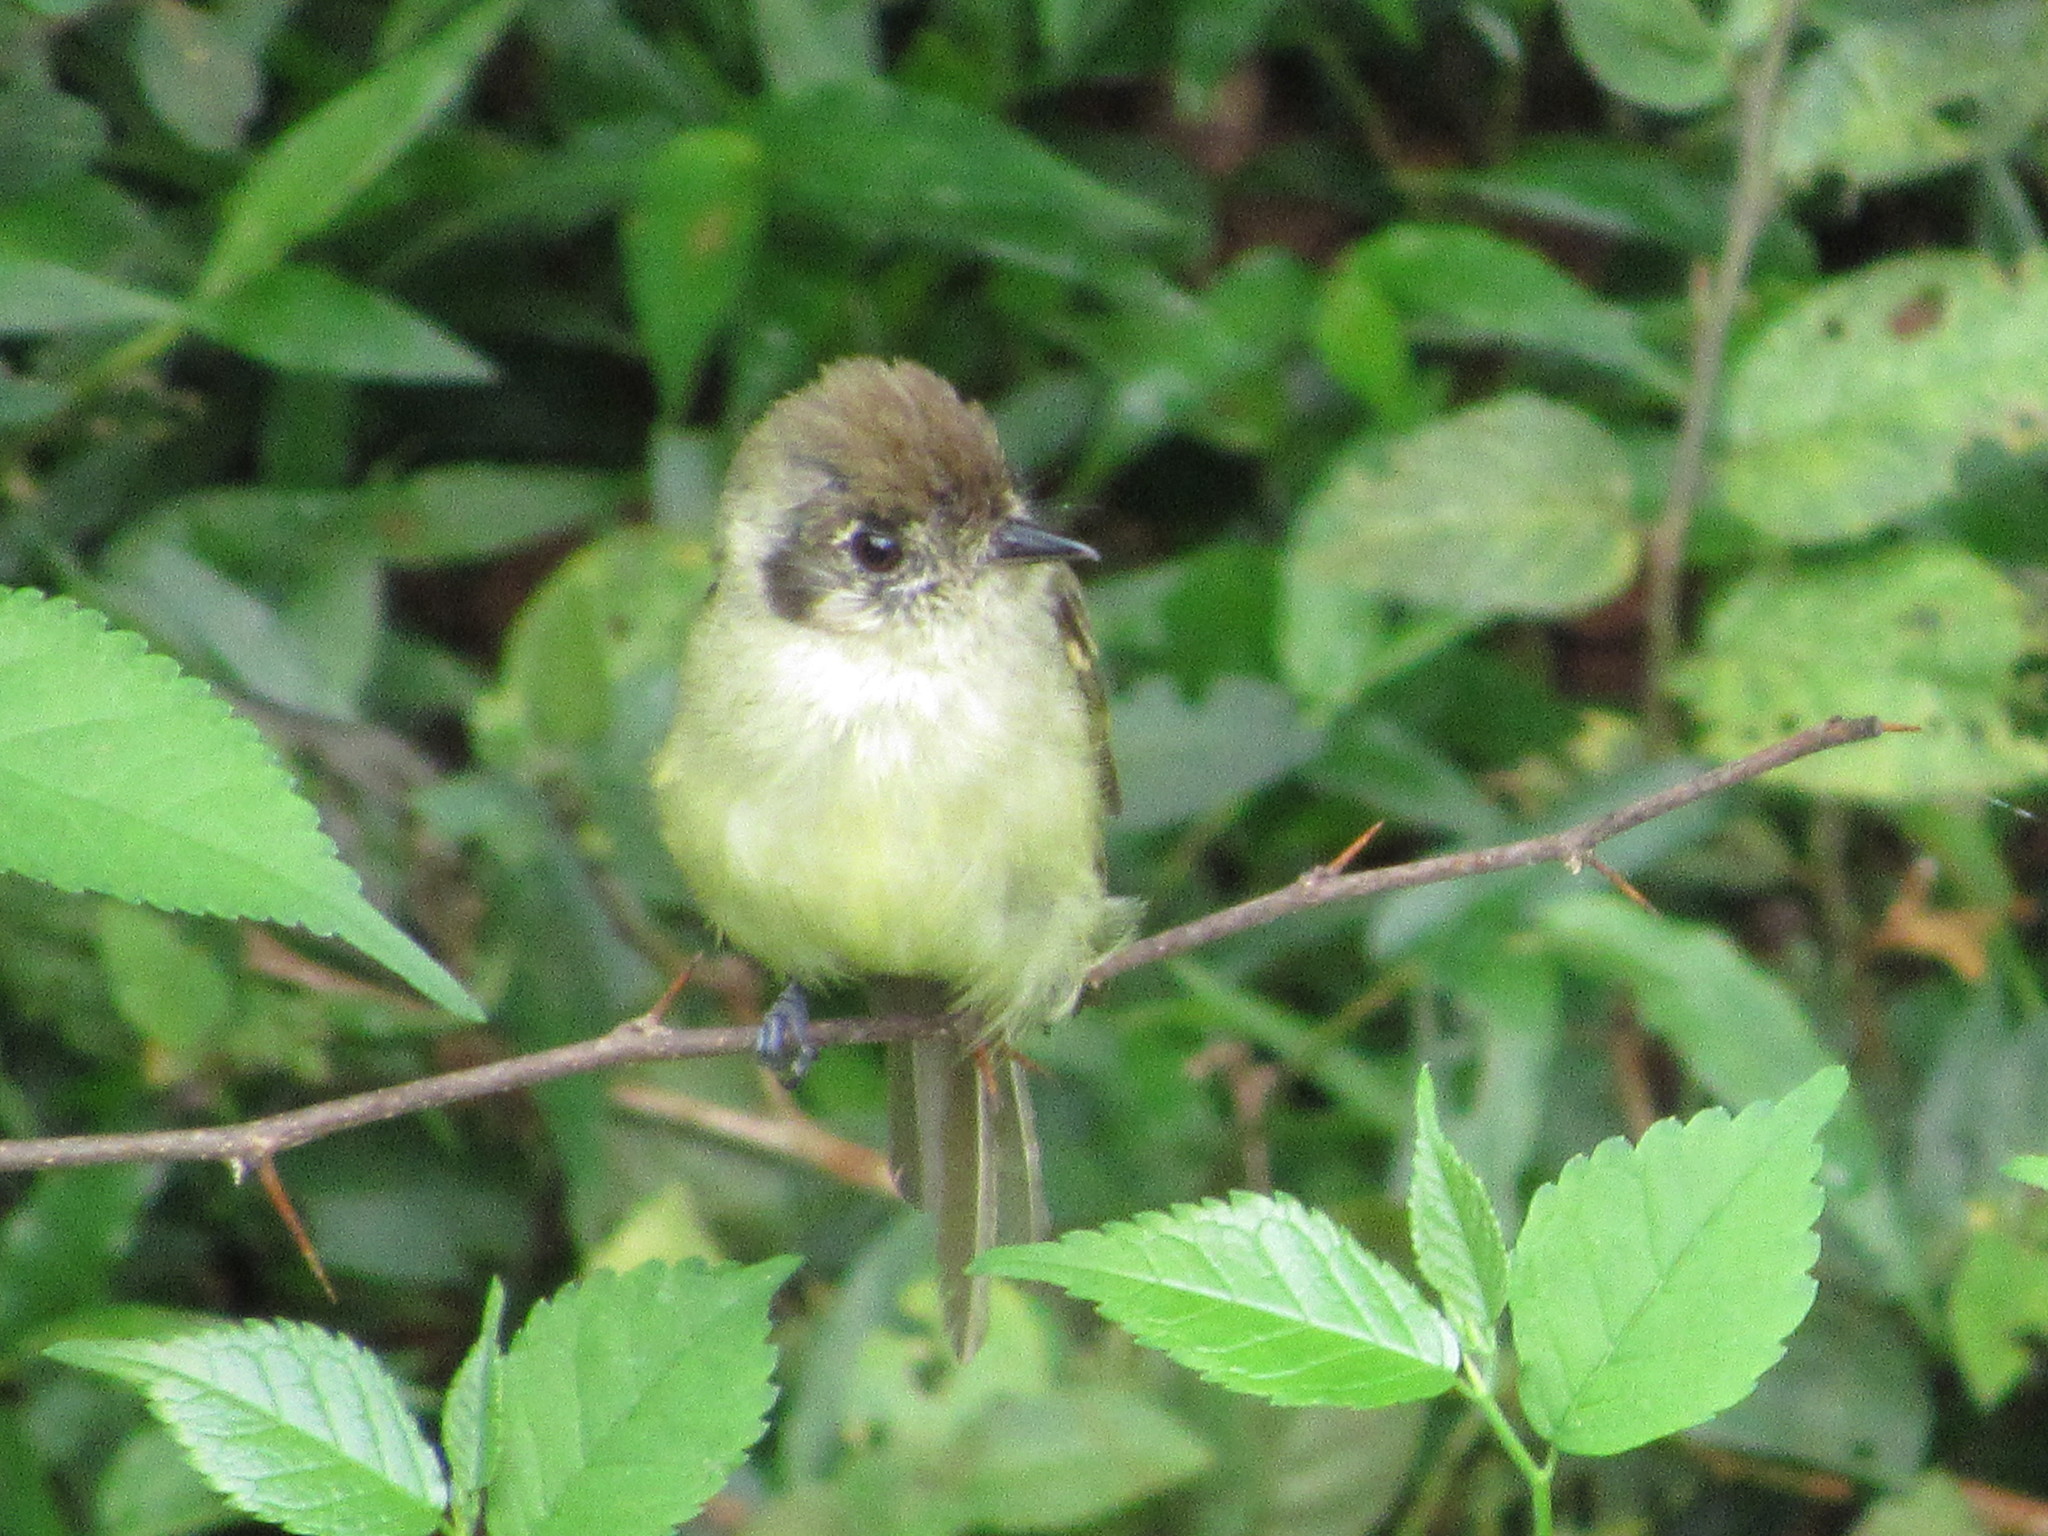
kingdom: Animalia
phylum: Chordata
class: Aves
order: Passeriformes
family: Tyrannidae
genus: Leptopogon
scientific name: Leptopogon amaurocephalus
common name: Sepia-capped flycatcher
